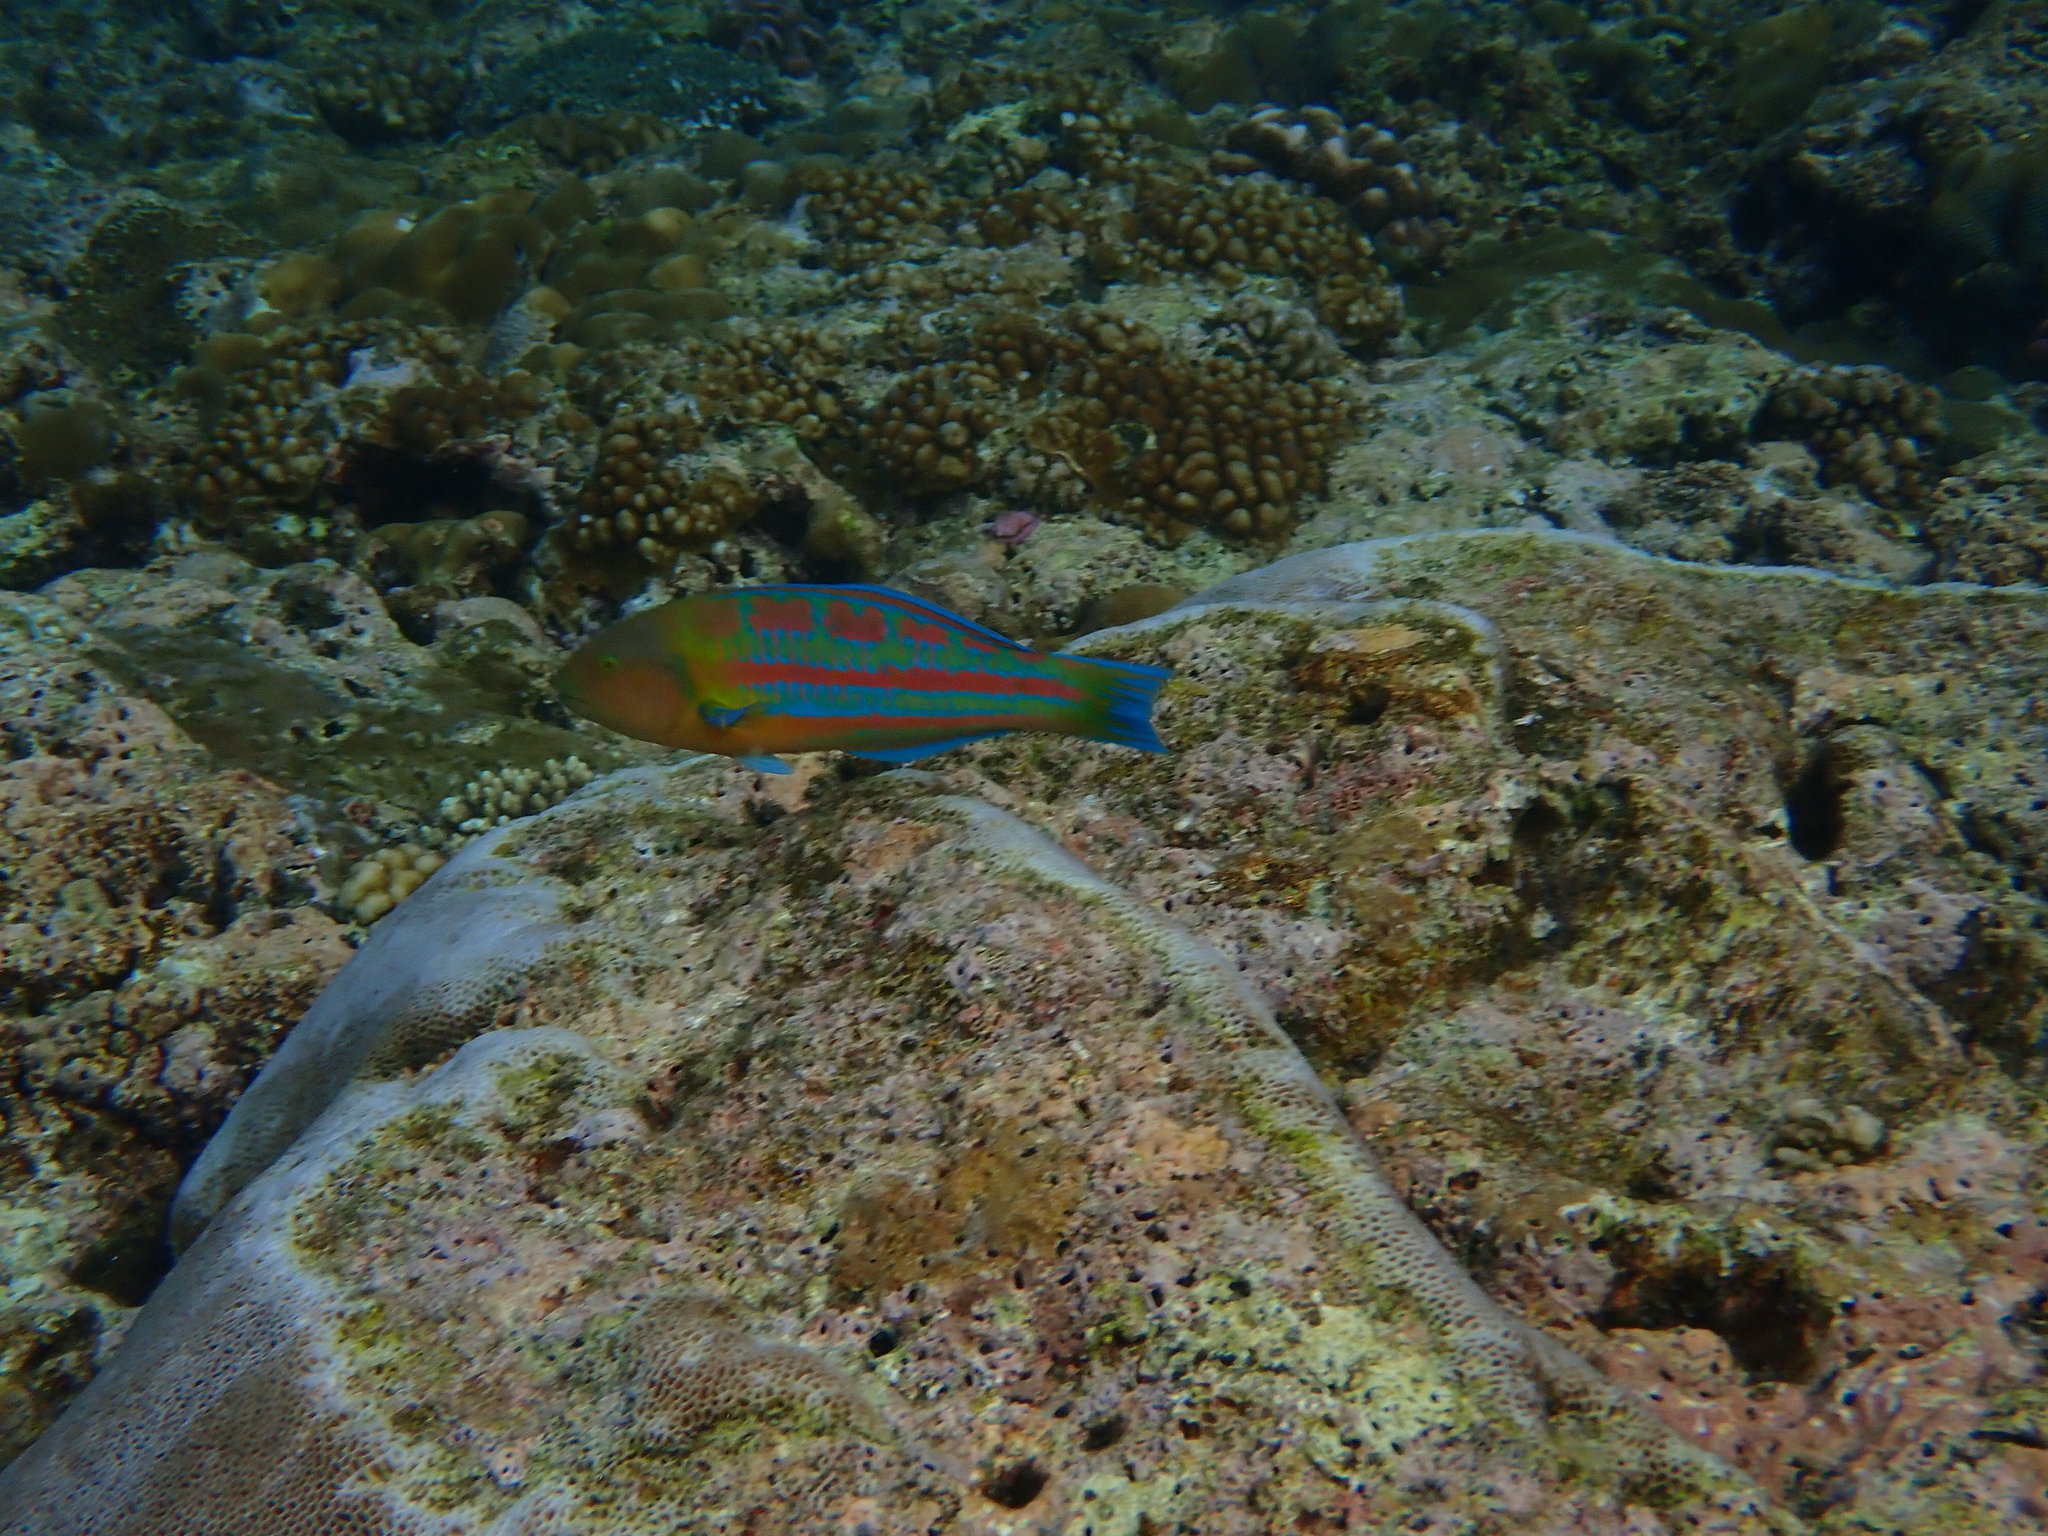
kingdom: Animalia
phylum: Chordata
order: Perciformes
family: Labridae
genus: Thalassoma
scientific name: Thalassoma trilobatum
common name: Christmas wrasse
